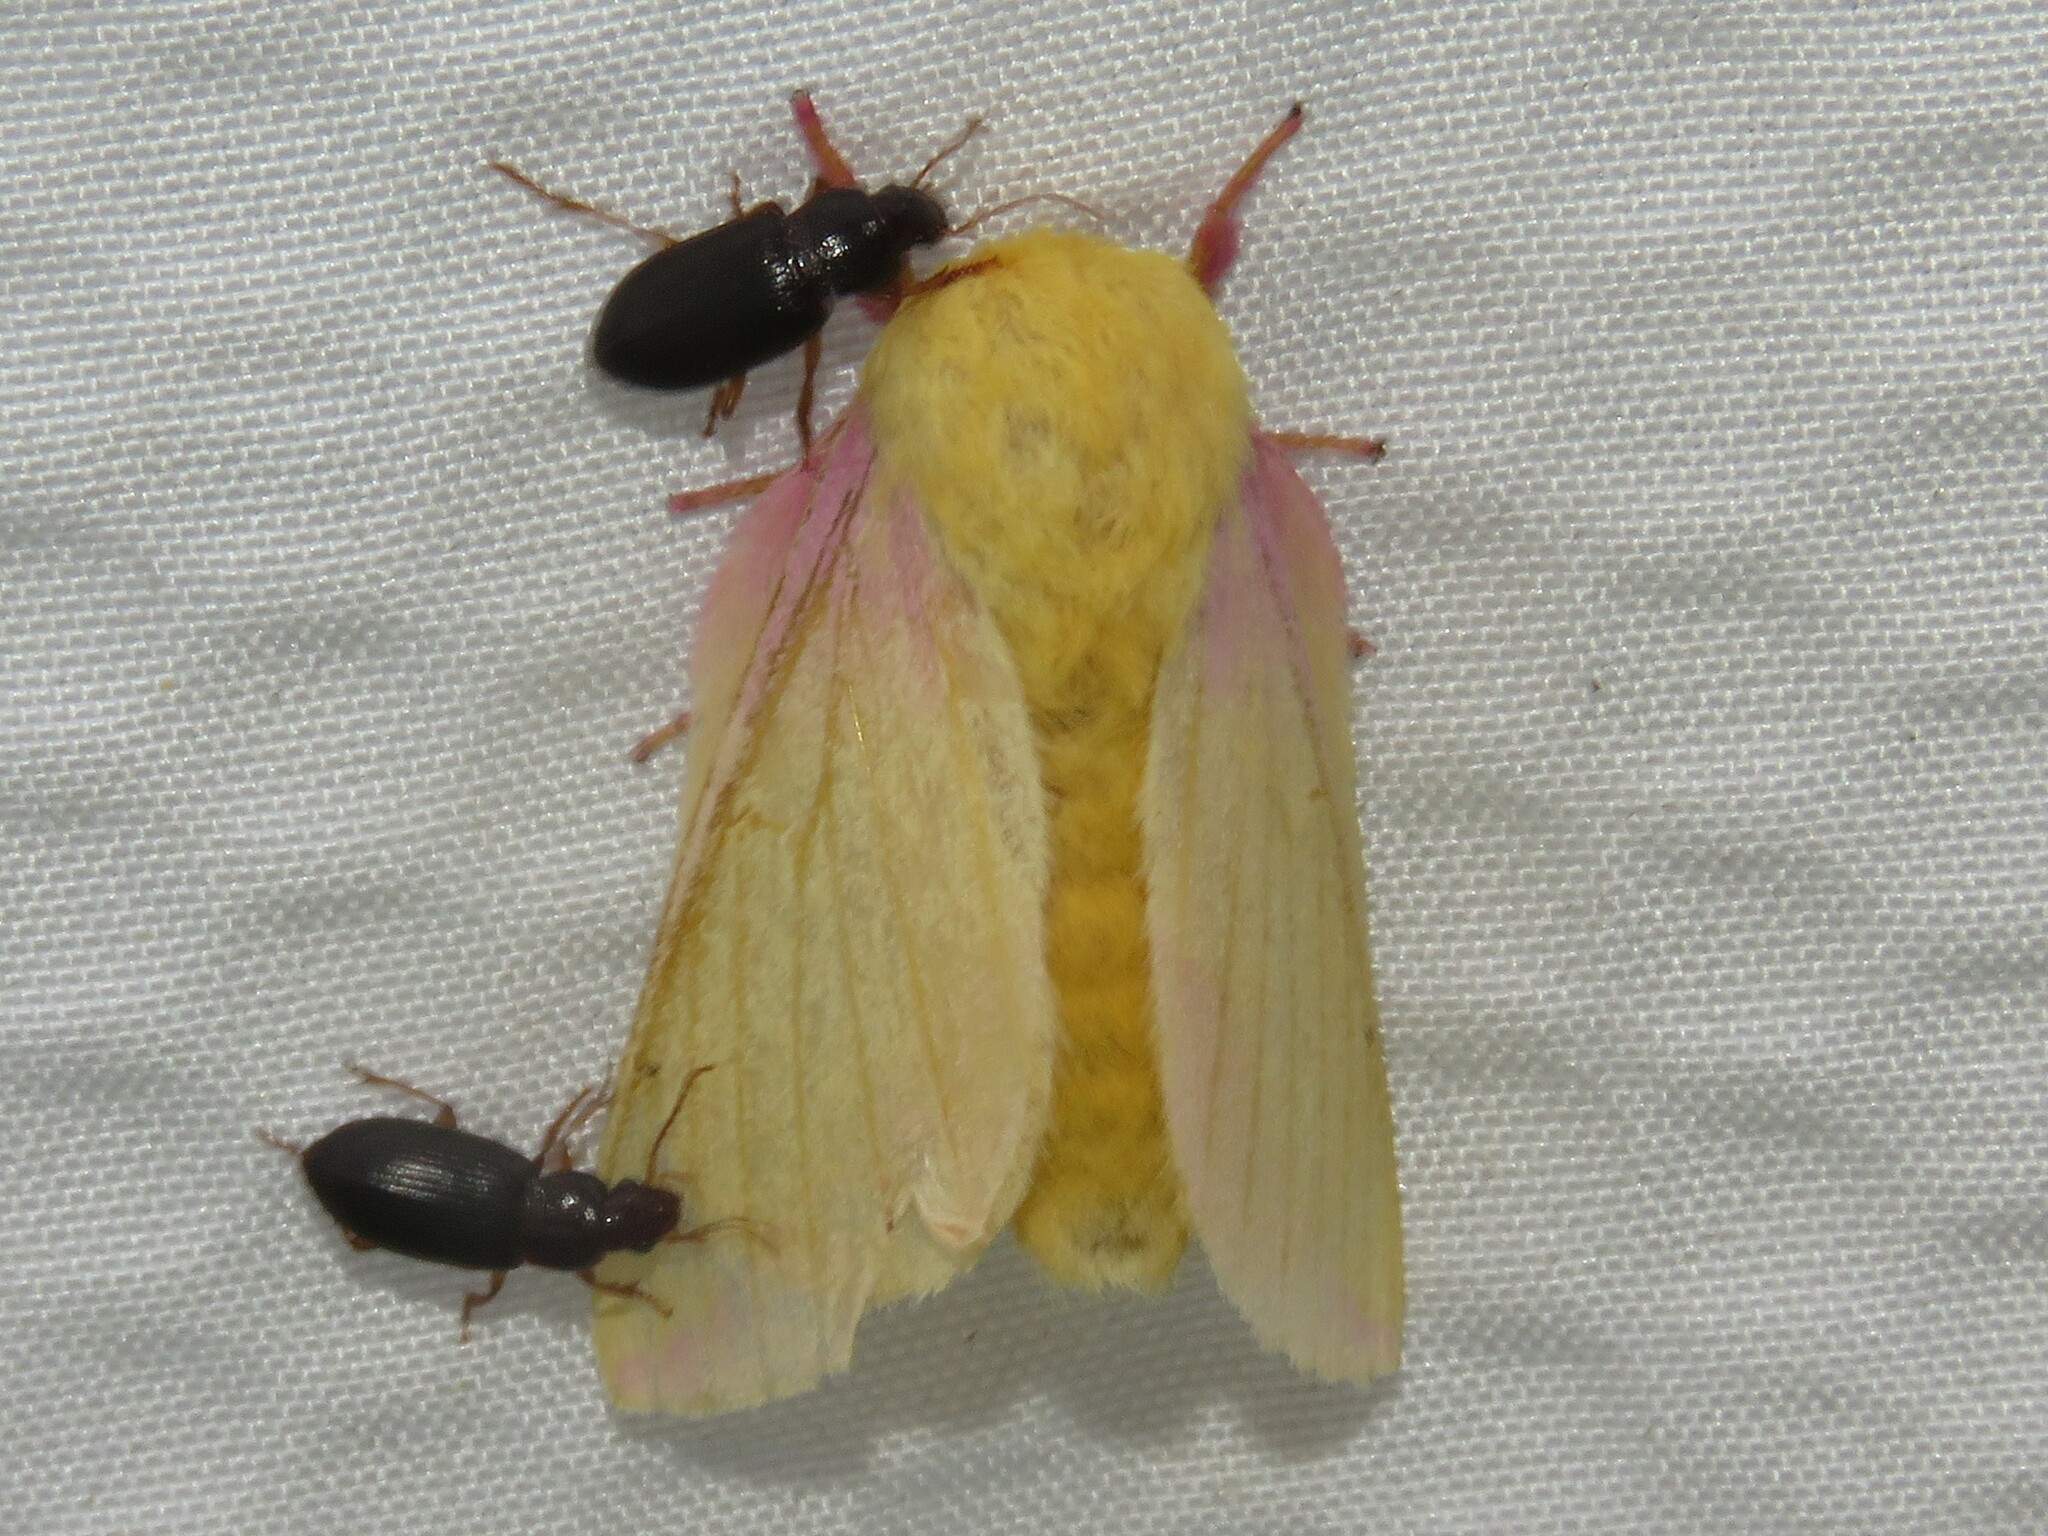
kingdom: Animalia
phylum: Arthropoda
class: Insecta
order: Lepidoptera
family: Saturniidae
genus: Dryocampa
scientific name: Dryocampa rubicunda
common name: Rosy maple moth
